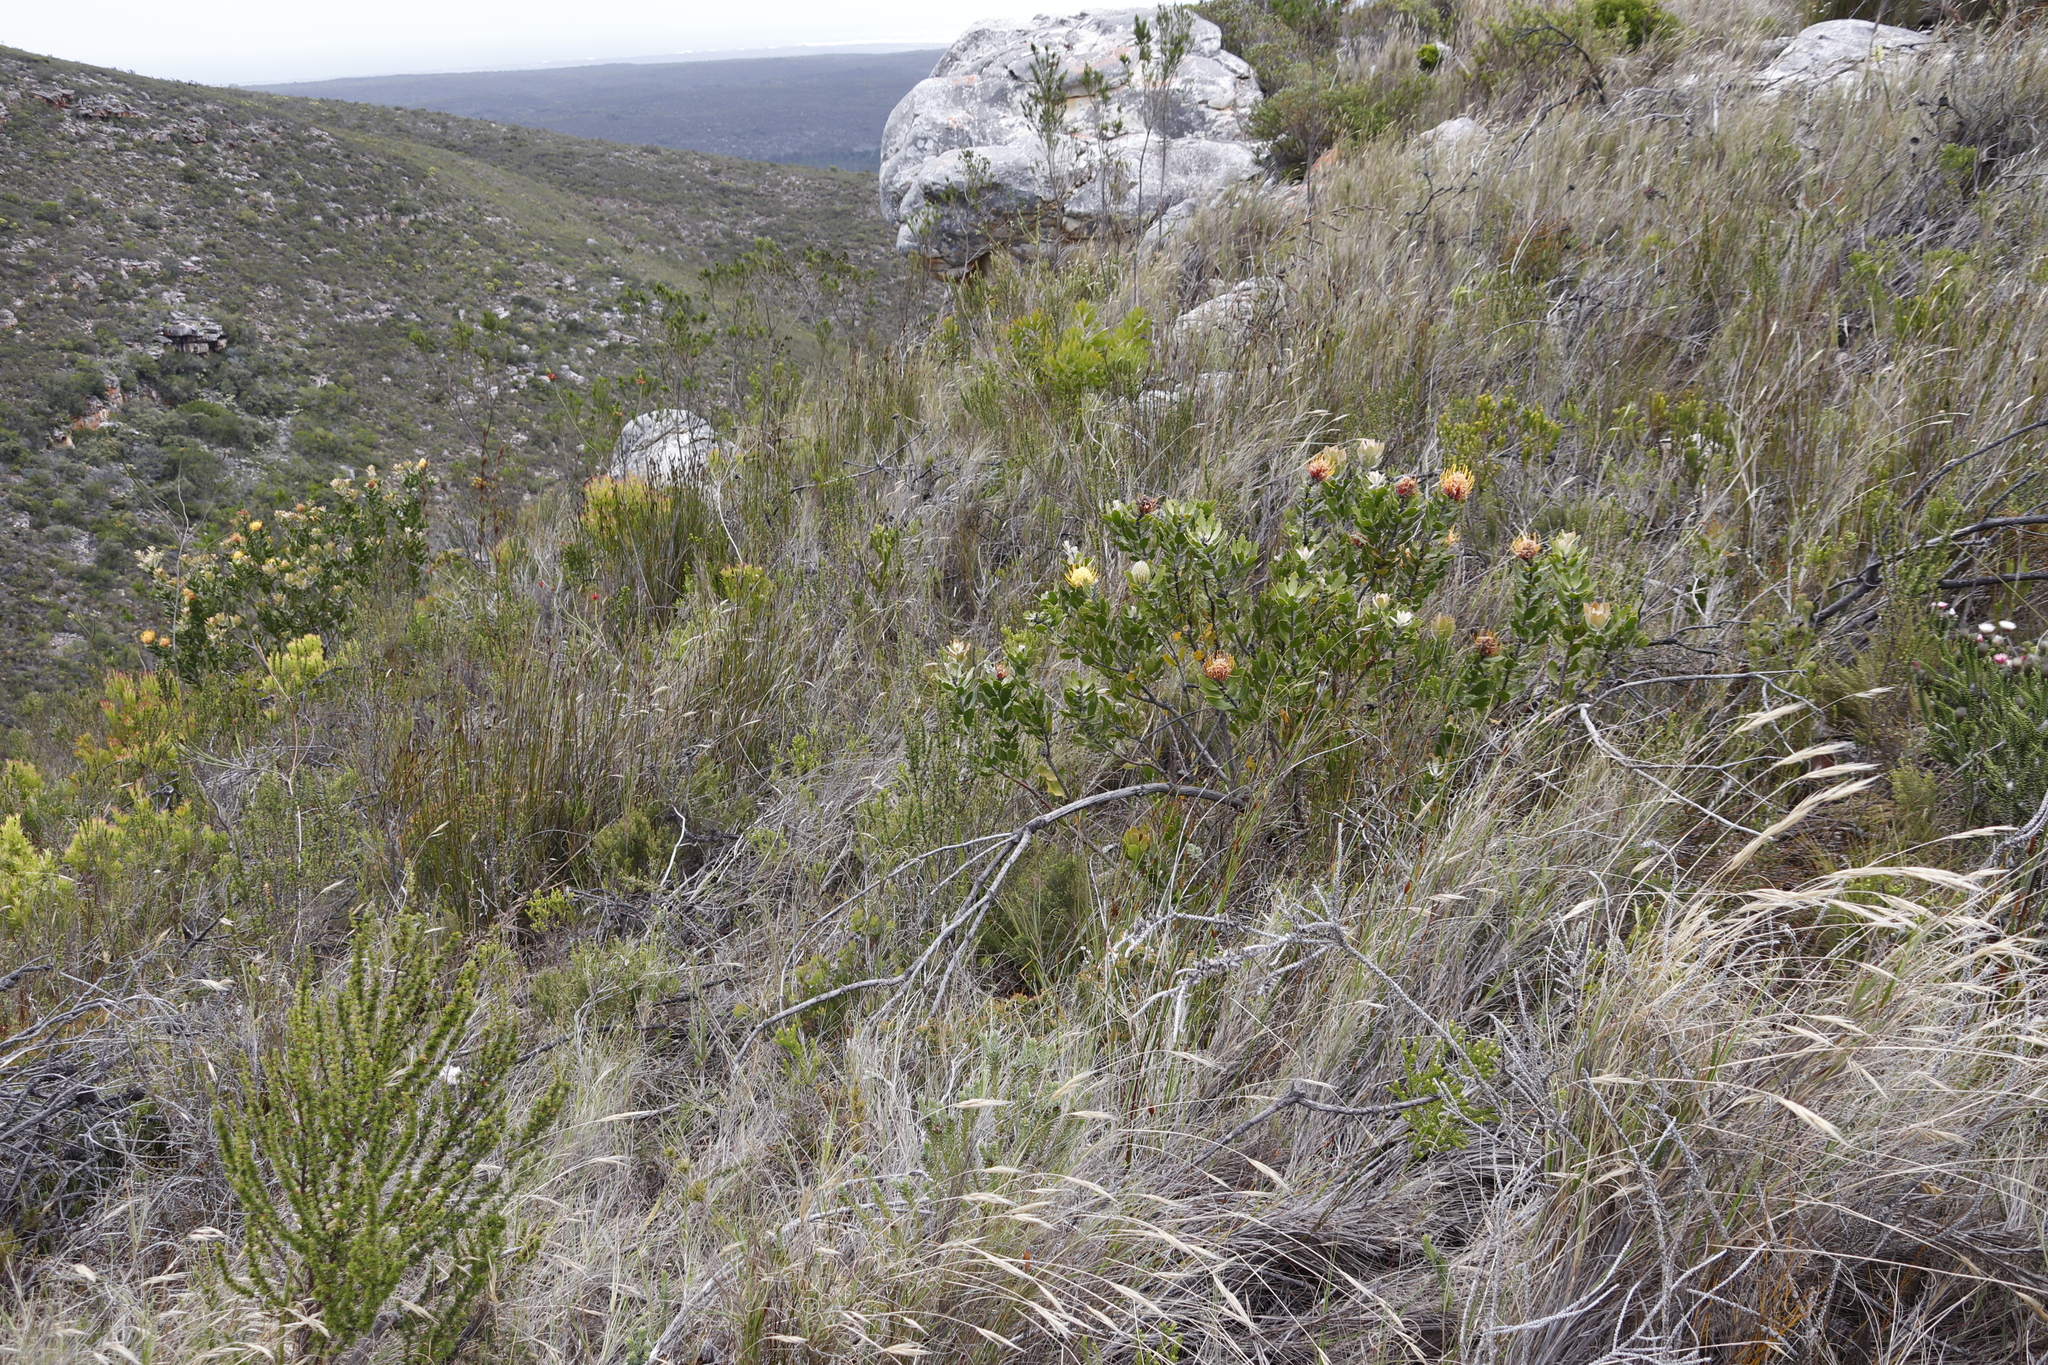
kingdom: Plantae
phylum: Tracheophyta
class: Magnoliopsida
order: Proteales
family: Proteaceae
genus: Leucospermum
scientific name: Leucospermum cuneiforme
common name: Common pincushion
